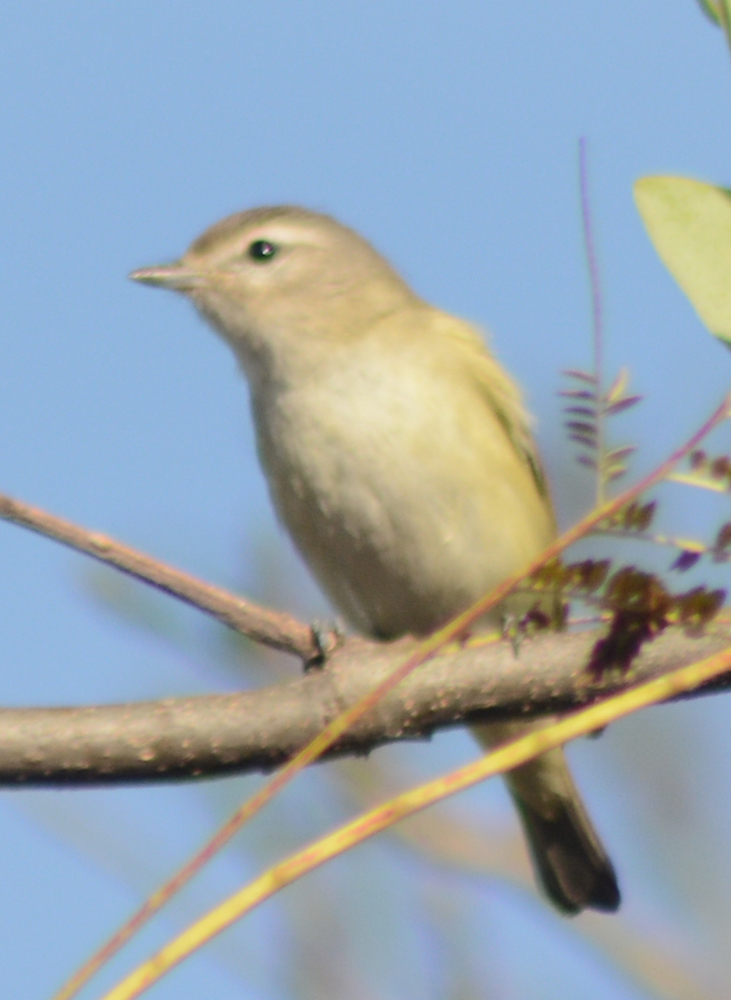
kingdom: Animalia
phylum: Chordata
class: Aves
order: Passeriformes
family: Vireonidae
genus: Vireo
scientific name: Vireo gilvus
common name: Warbling vireo
